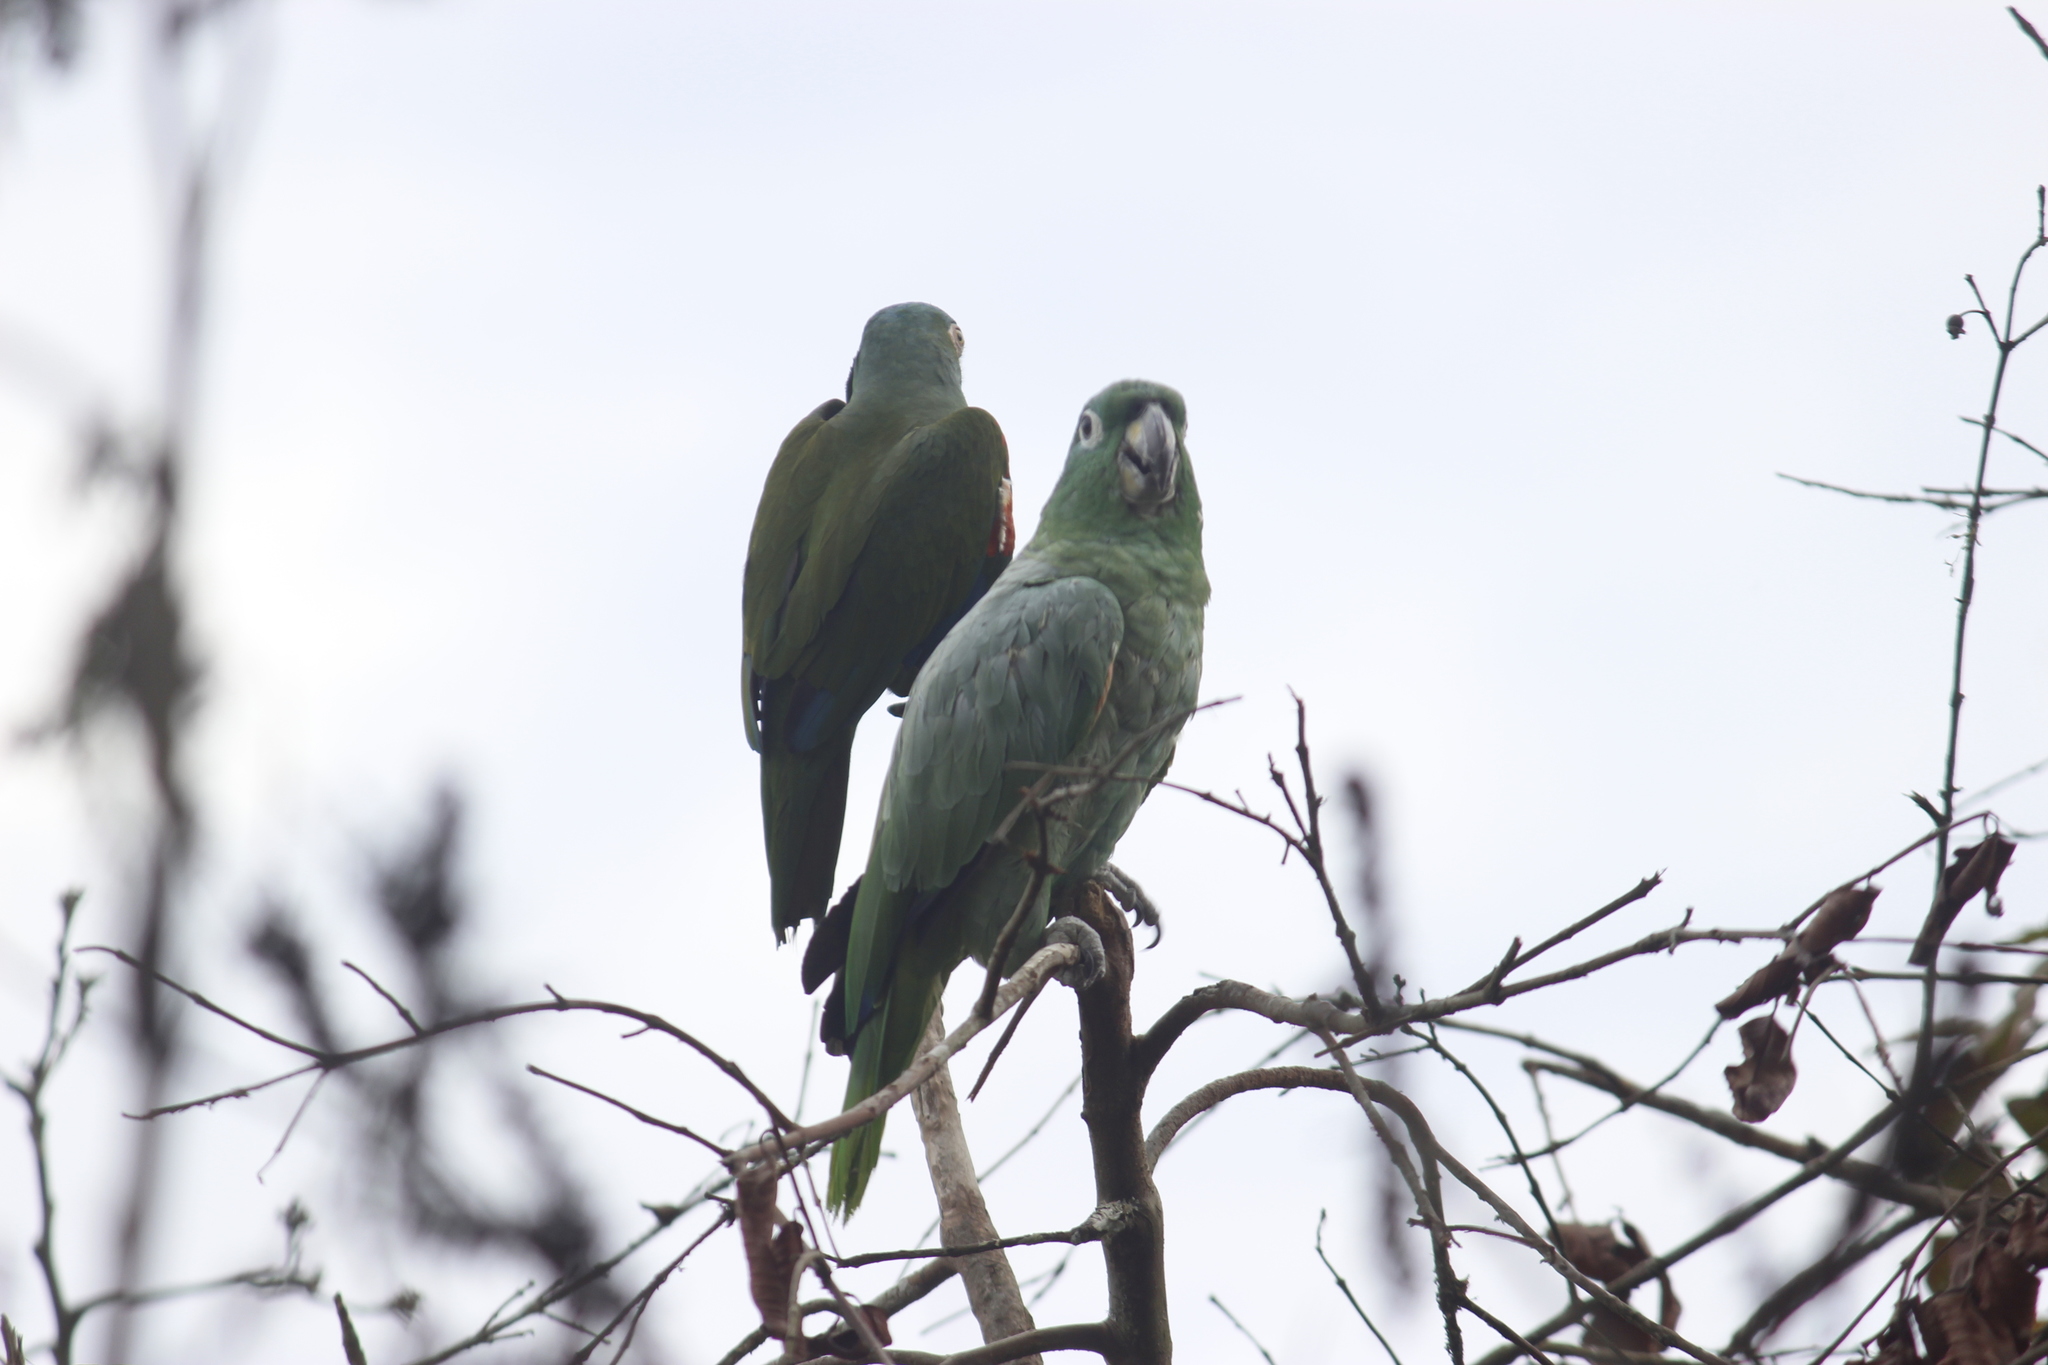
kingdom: Animalia
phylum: Chordata
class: Aves
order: Psittaciformes
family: Psittacidae
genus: Amazona
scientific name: Amazona farinosa
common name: Mealy parrot
